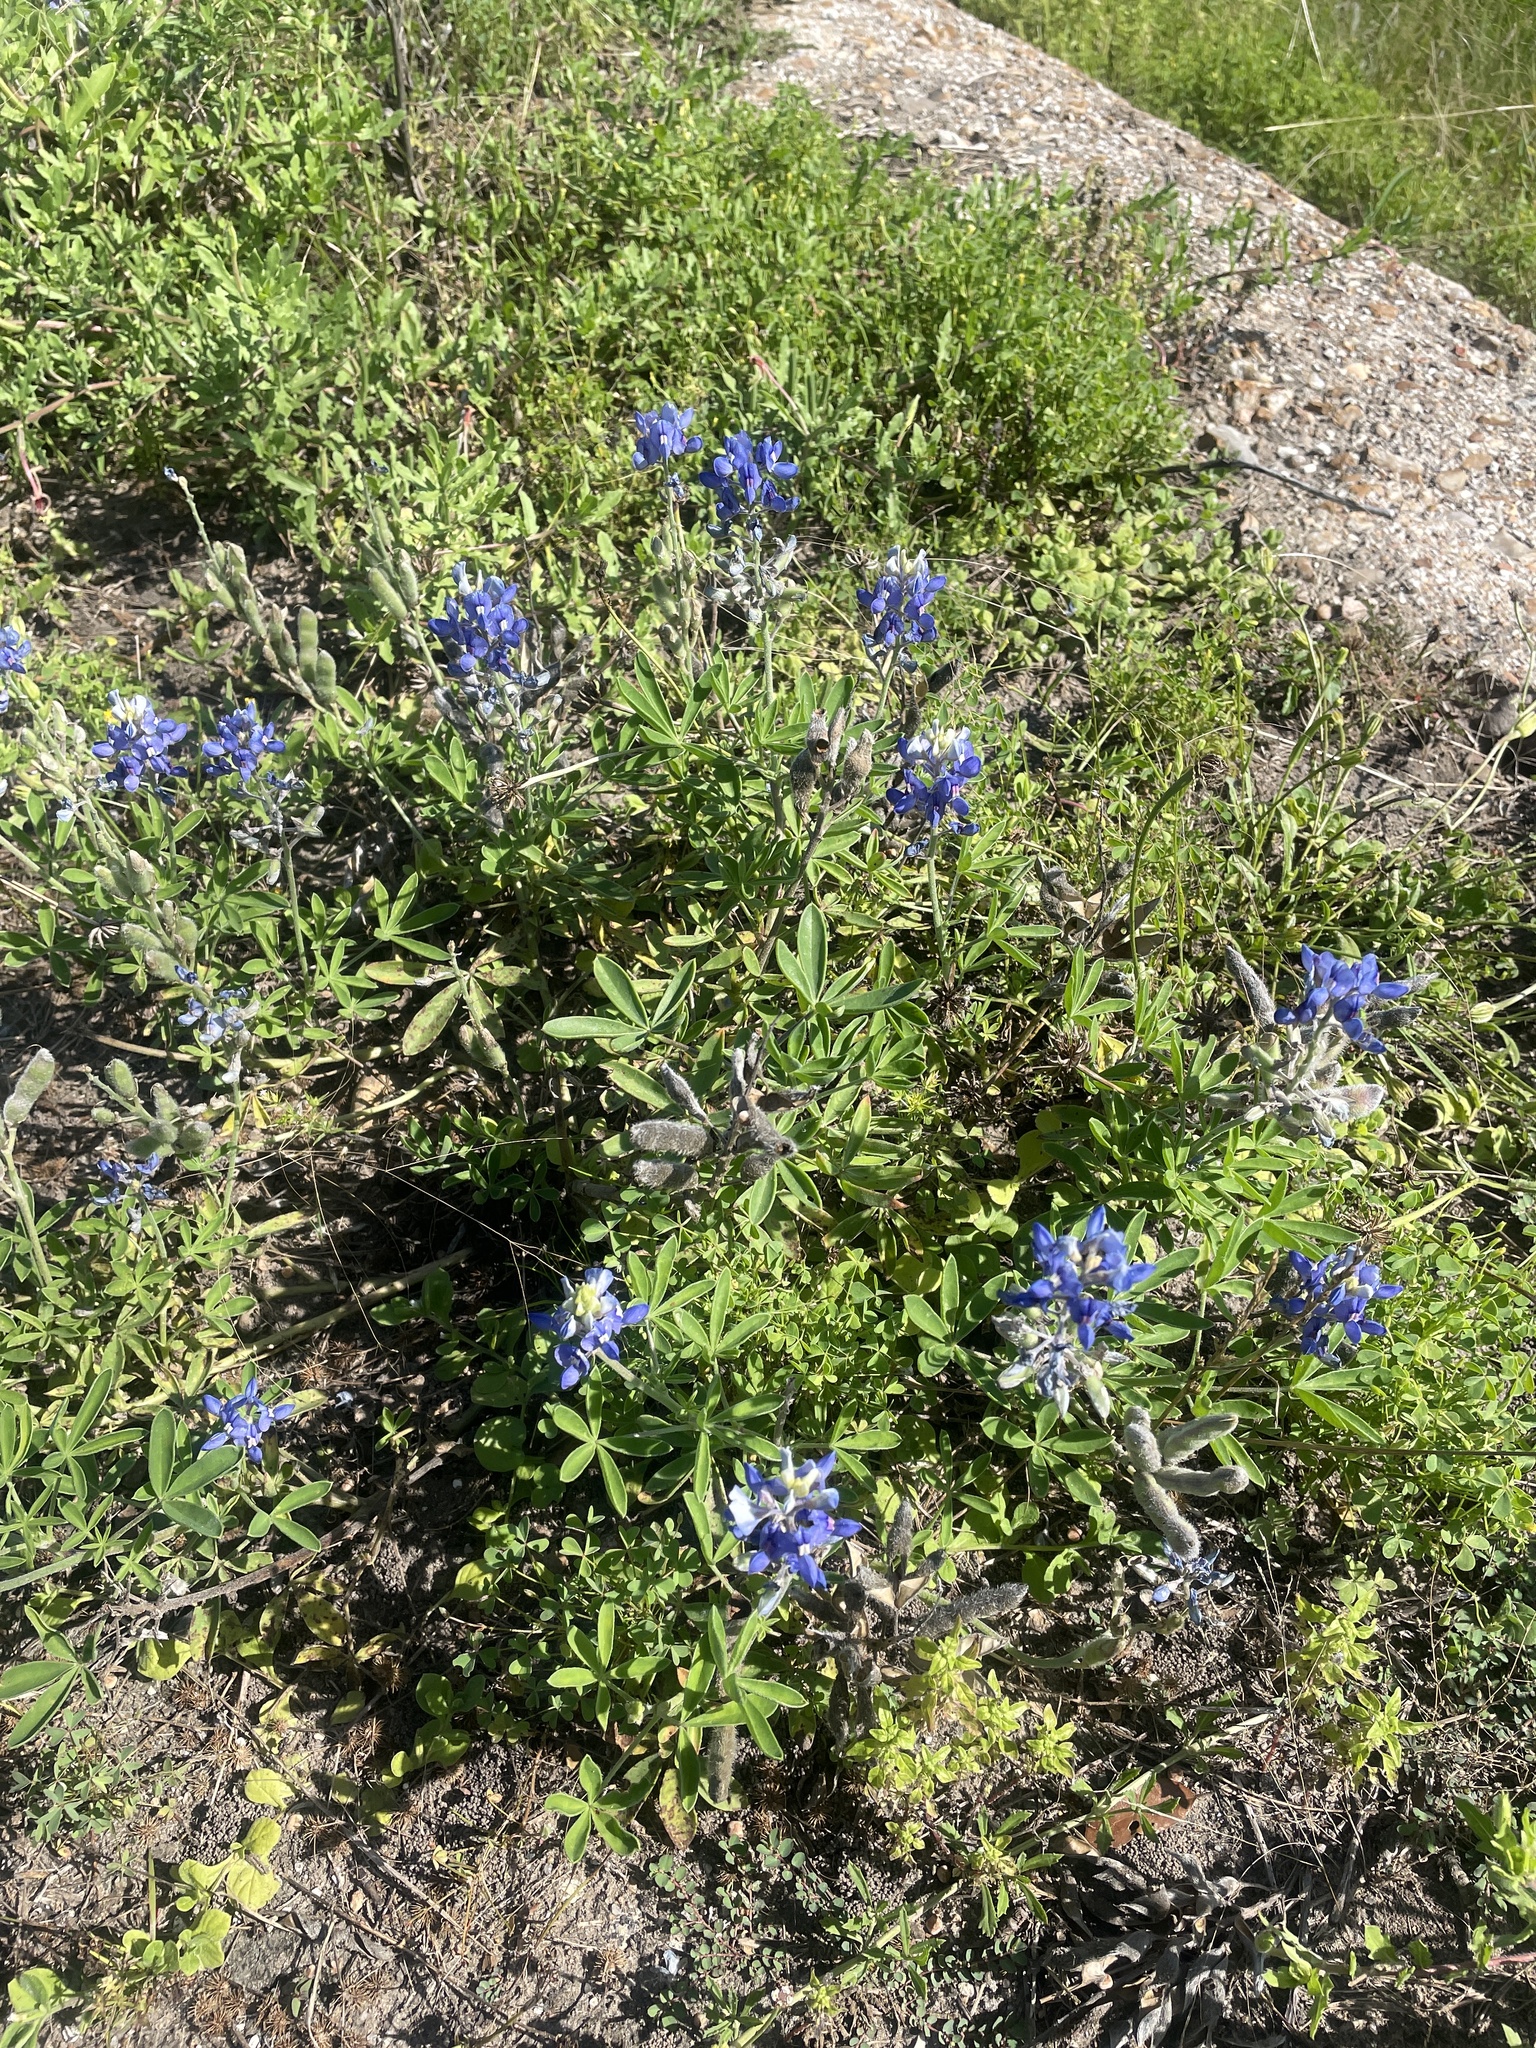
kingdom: Plantae
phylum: Tracheophyta
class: Magnoliopsida
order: Fabales
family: Fabaceae
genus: Lupinus
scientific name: Lupinus texensis
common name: Texas bluebonnet
